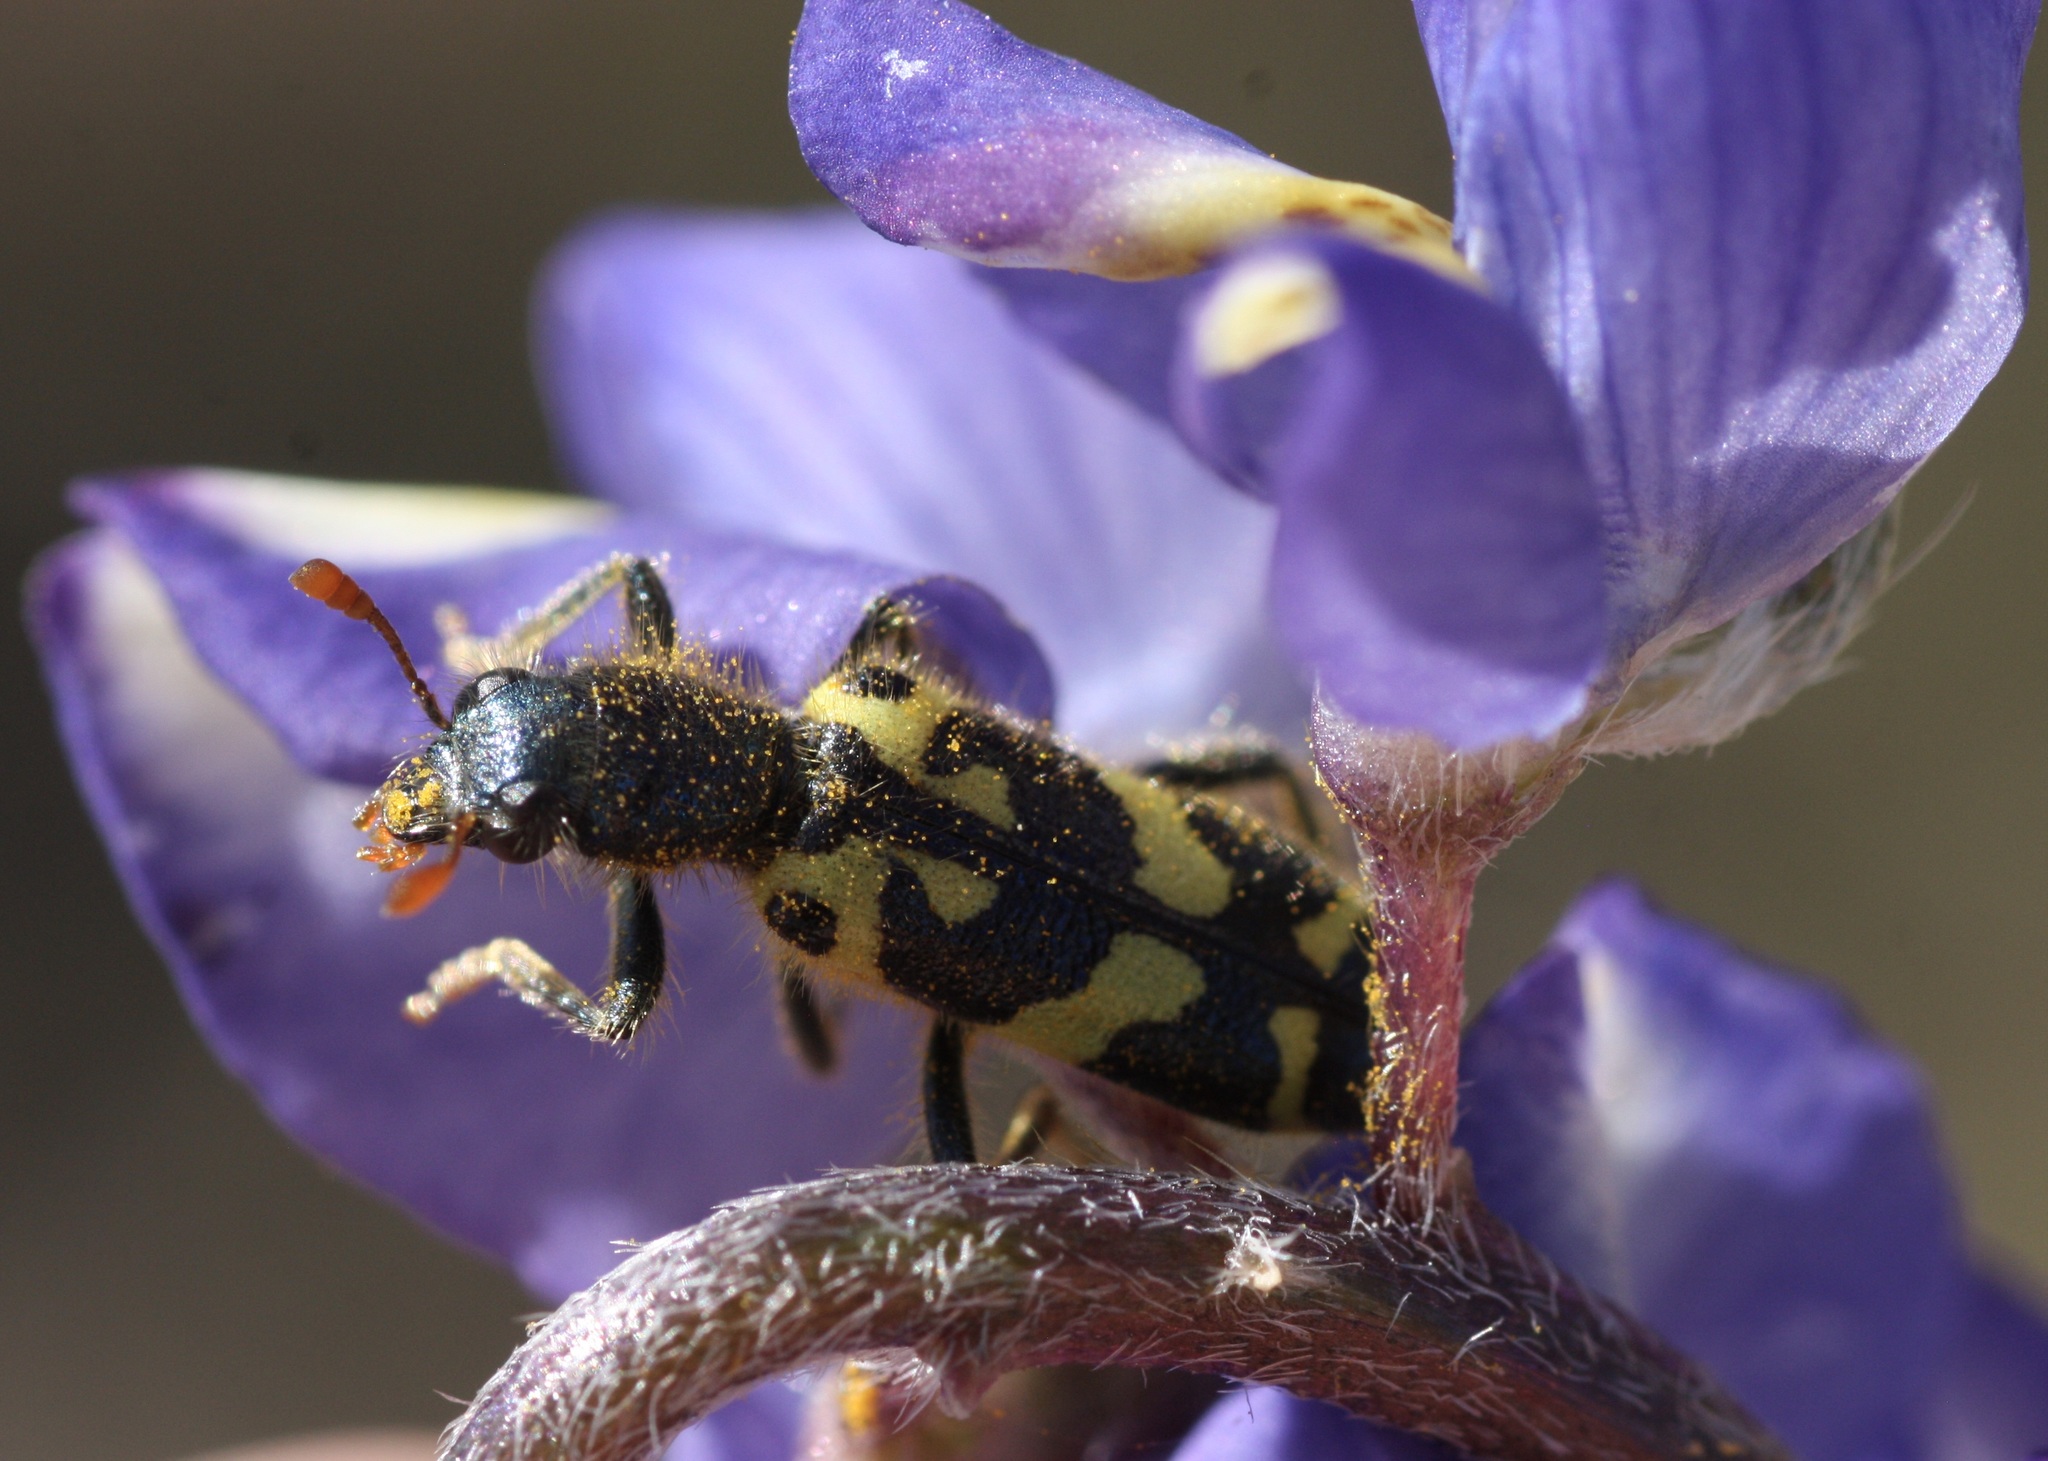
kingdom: Animalia
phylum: Arthropoda
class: Insecta
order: Coleoptera
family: Cleridae
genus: Trichodes
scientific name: Trichodes ornatus
